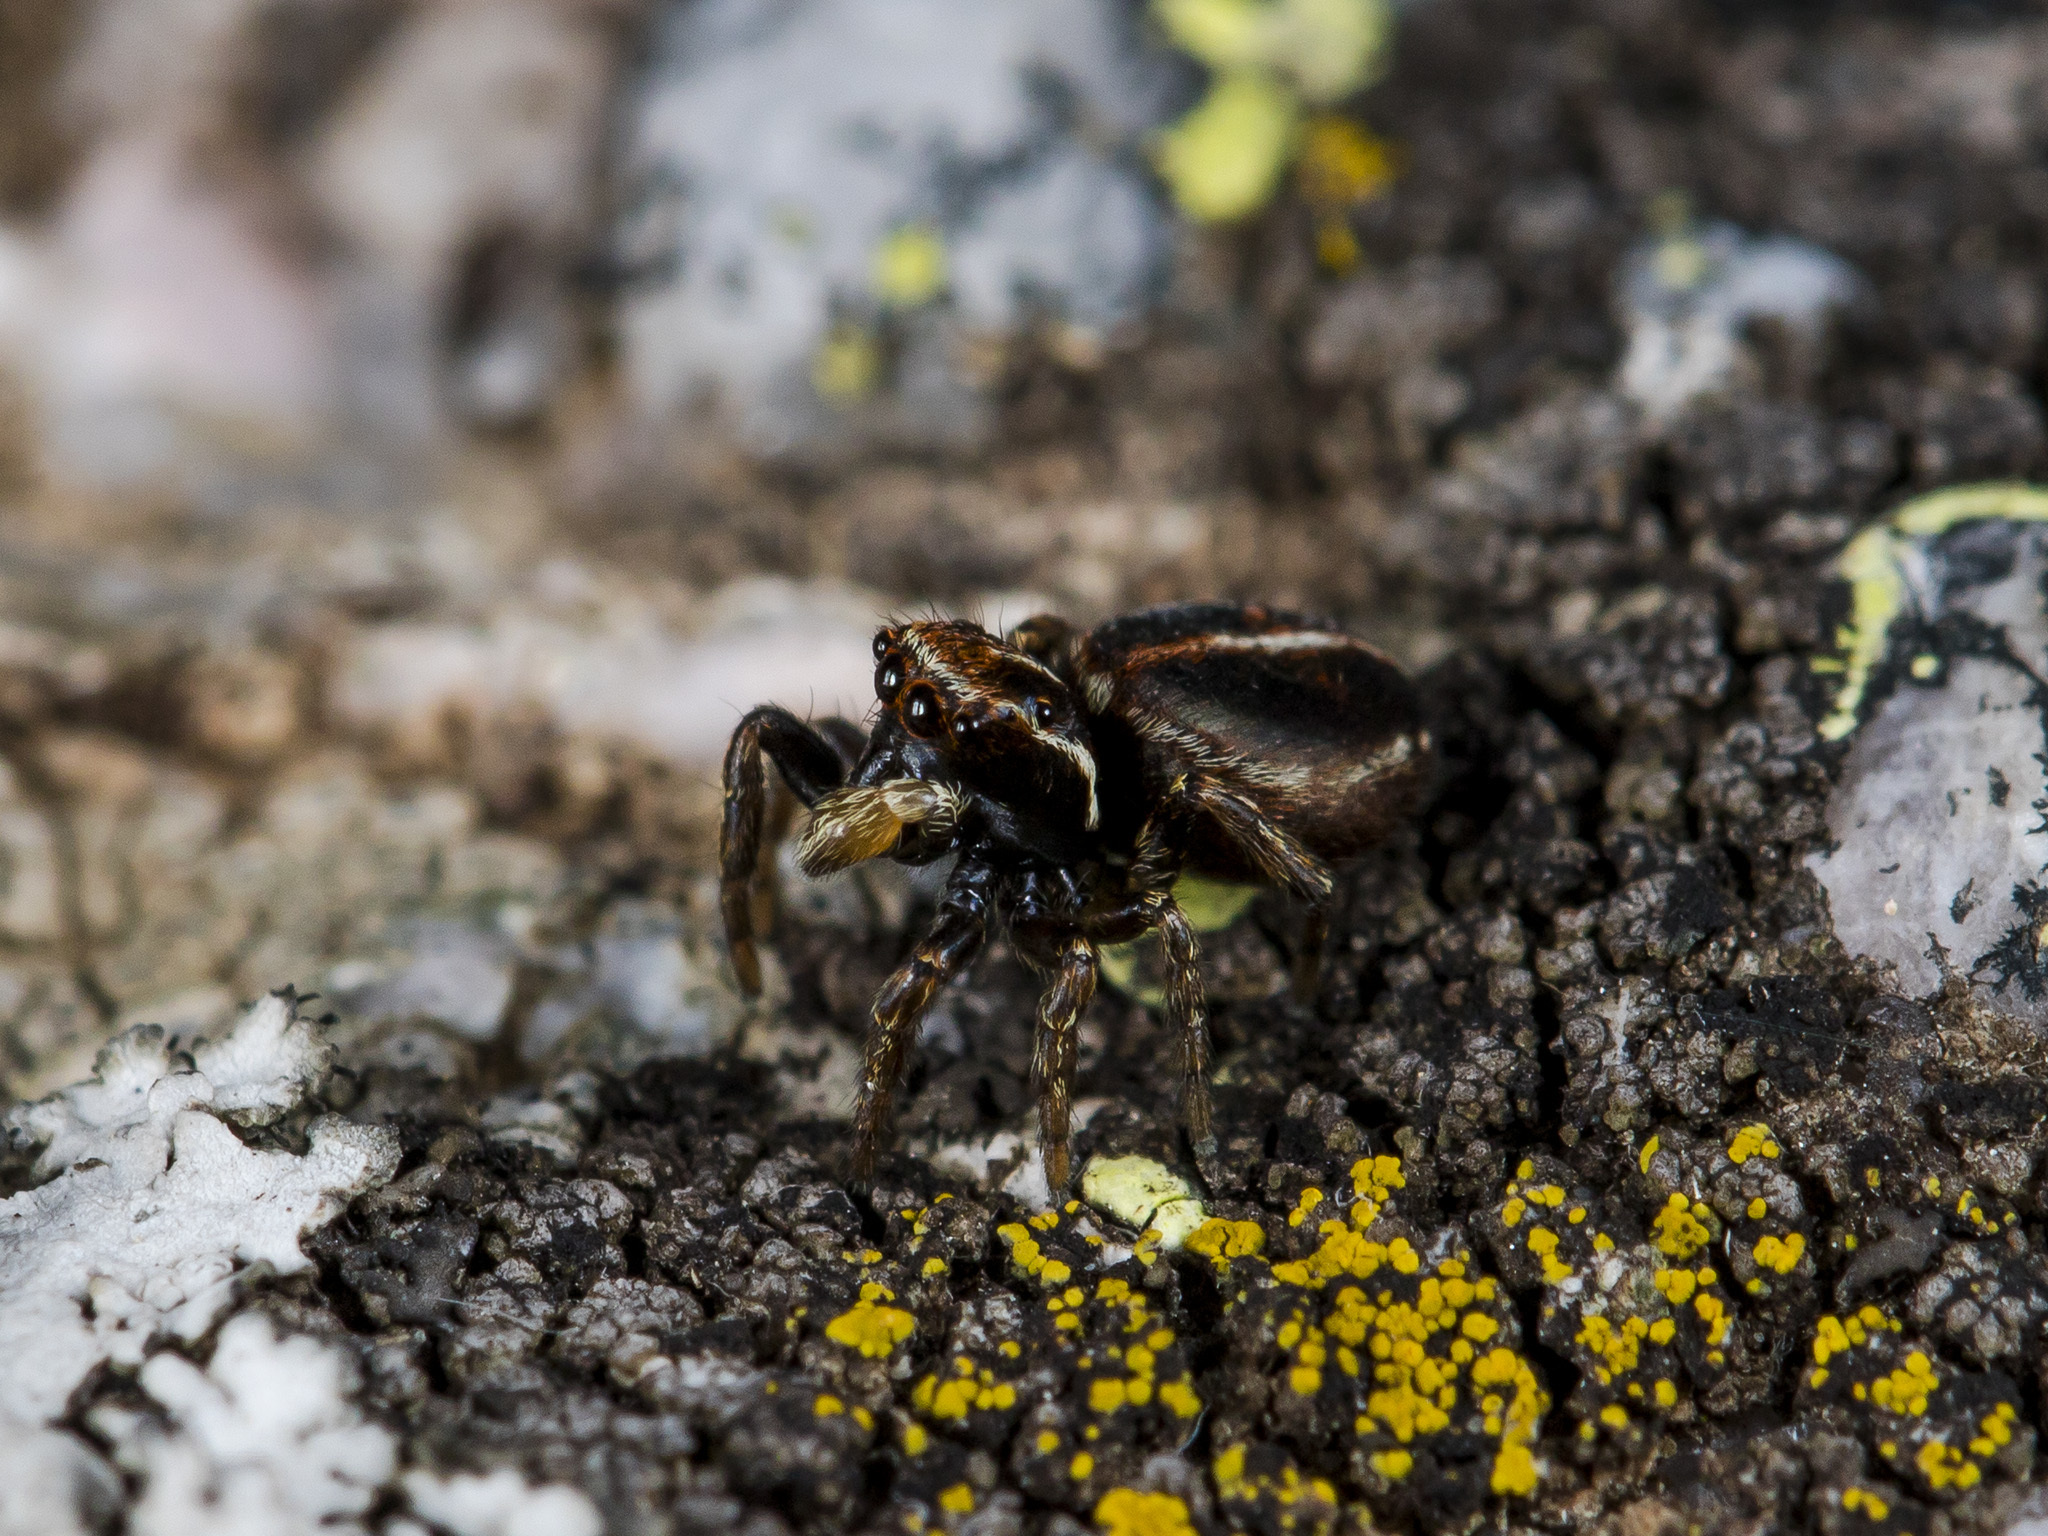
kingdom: Animalia
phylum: Arthropoda
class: Arachnida
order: Araneae
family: Salticidae
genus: Attulus
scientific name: Attulus monstrabilis
